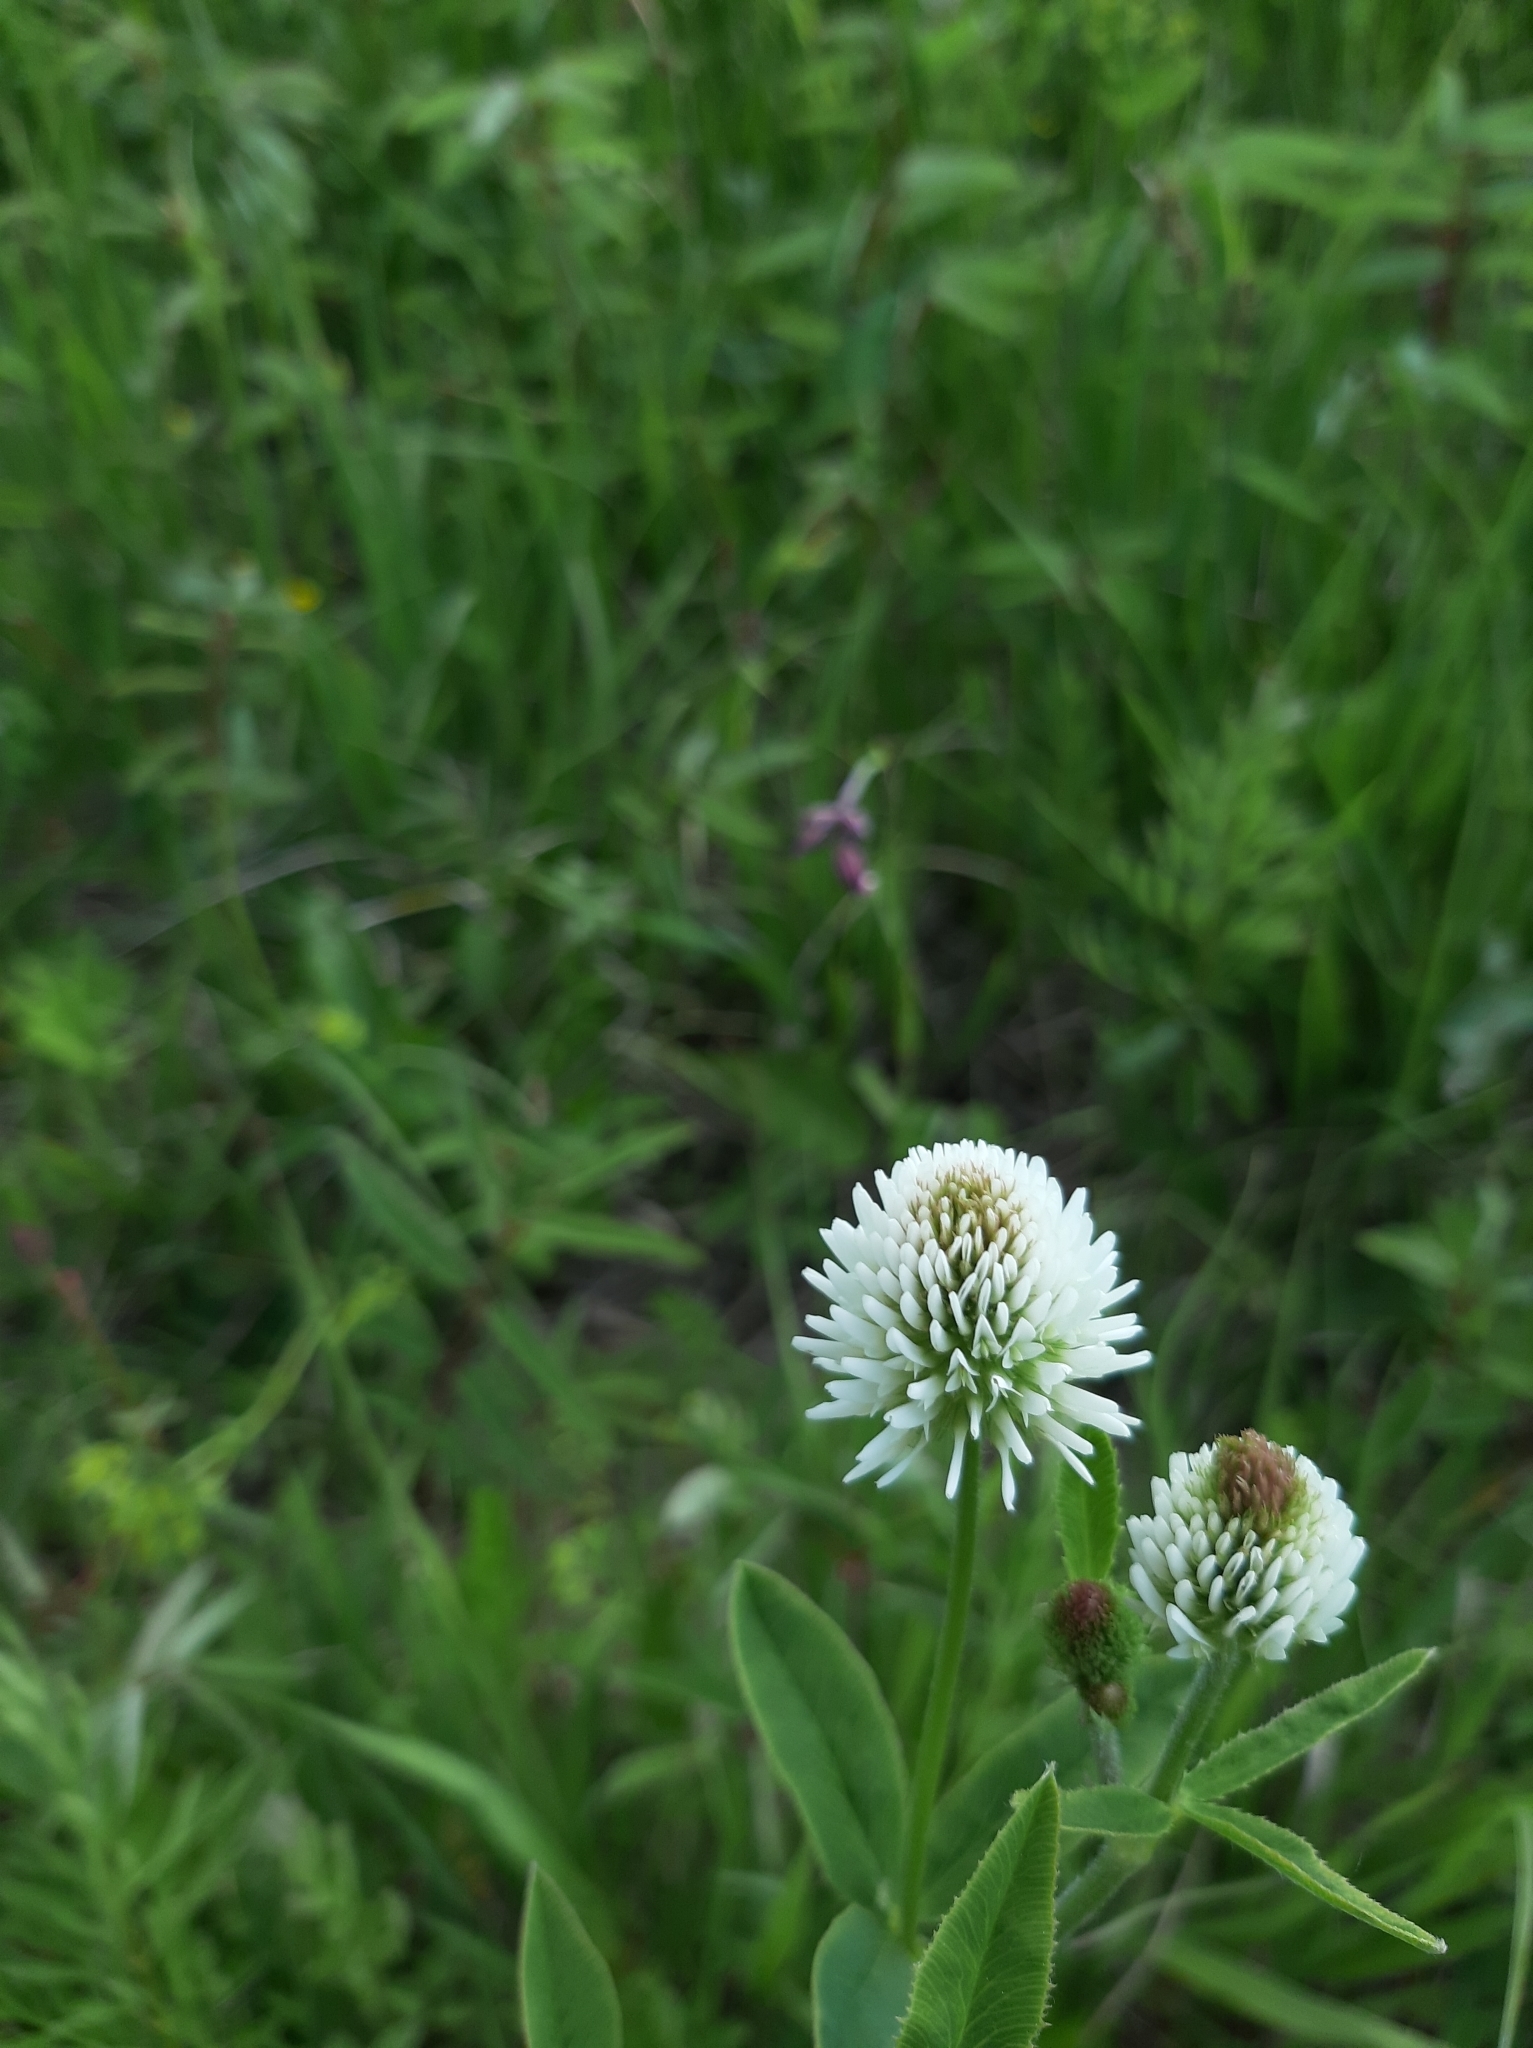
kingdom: Plantae
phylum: Tracheophyta
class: Magnoliopsida
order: Fabales
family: Fabaceae
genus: Trifolium
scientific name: Trifolium montanum
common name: Mountain clover
